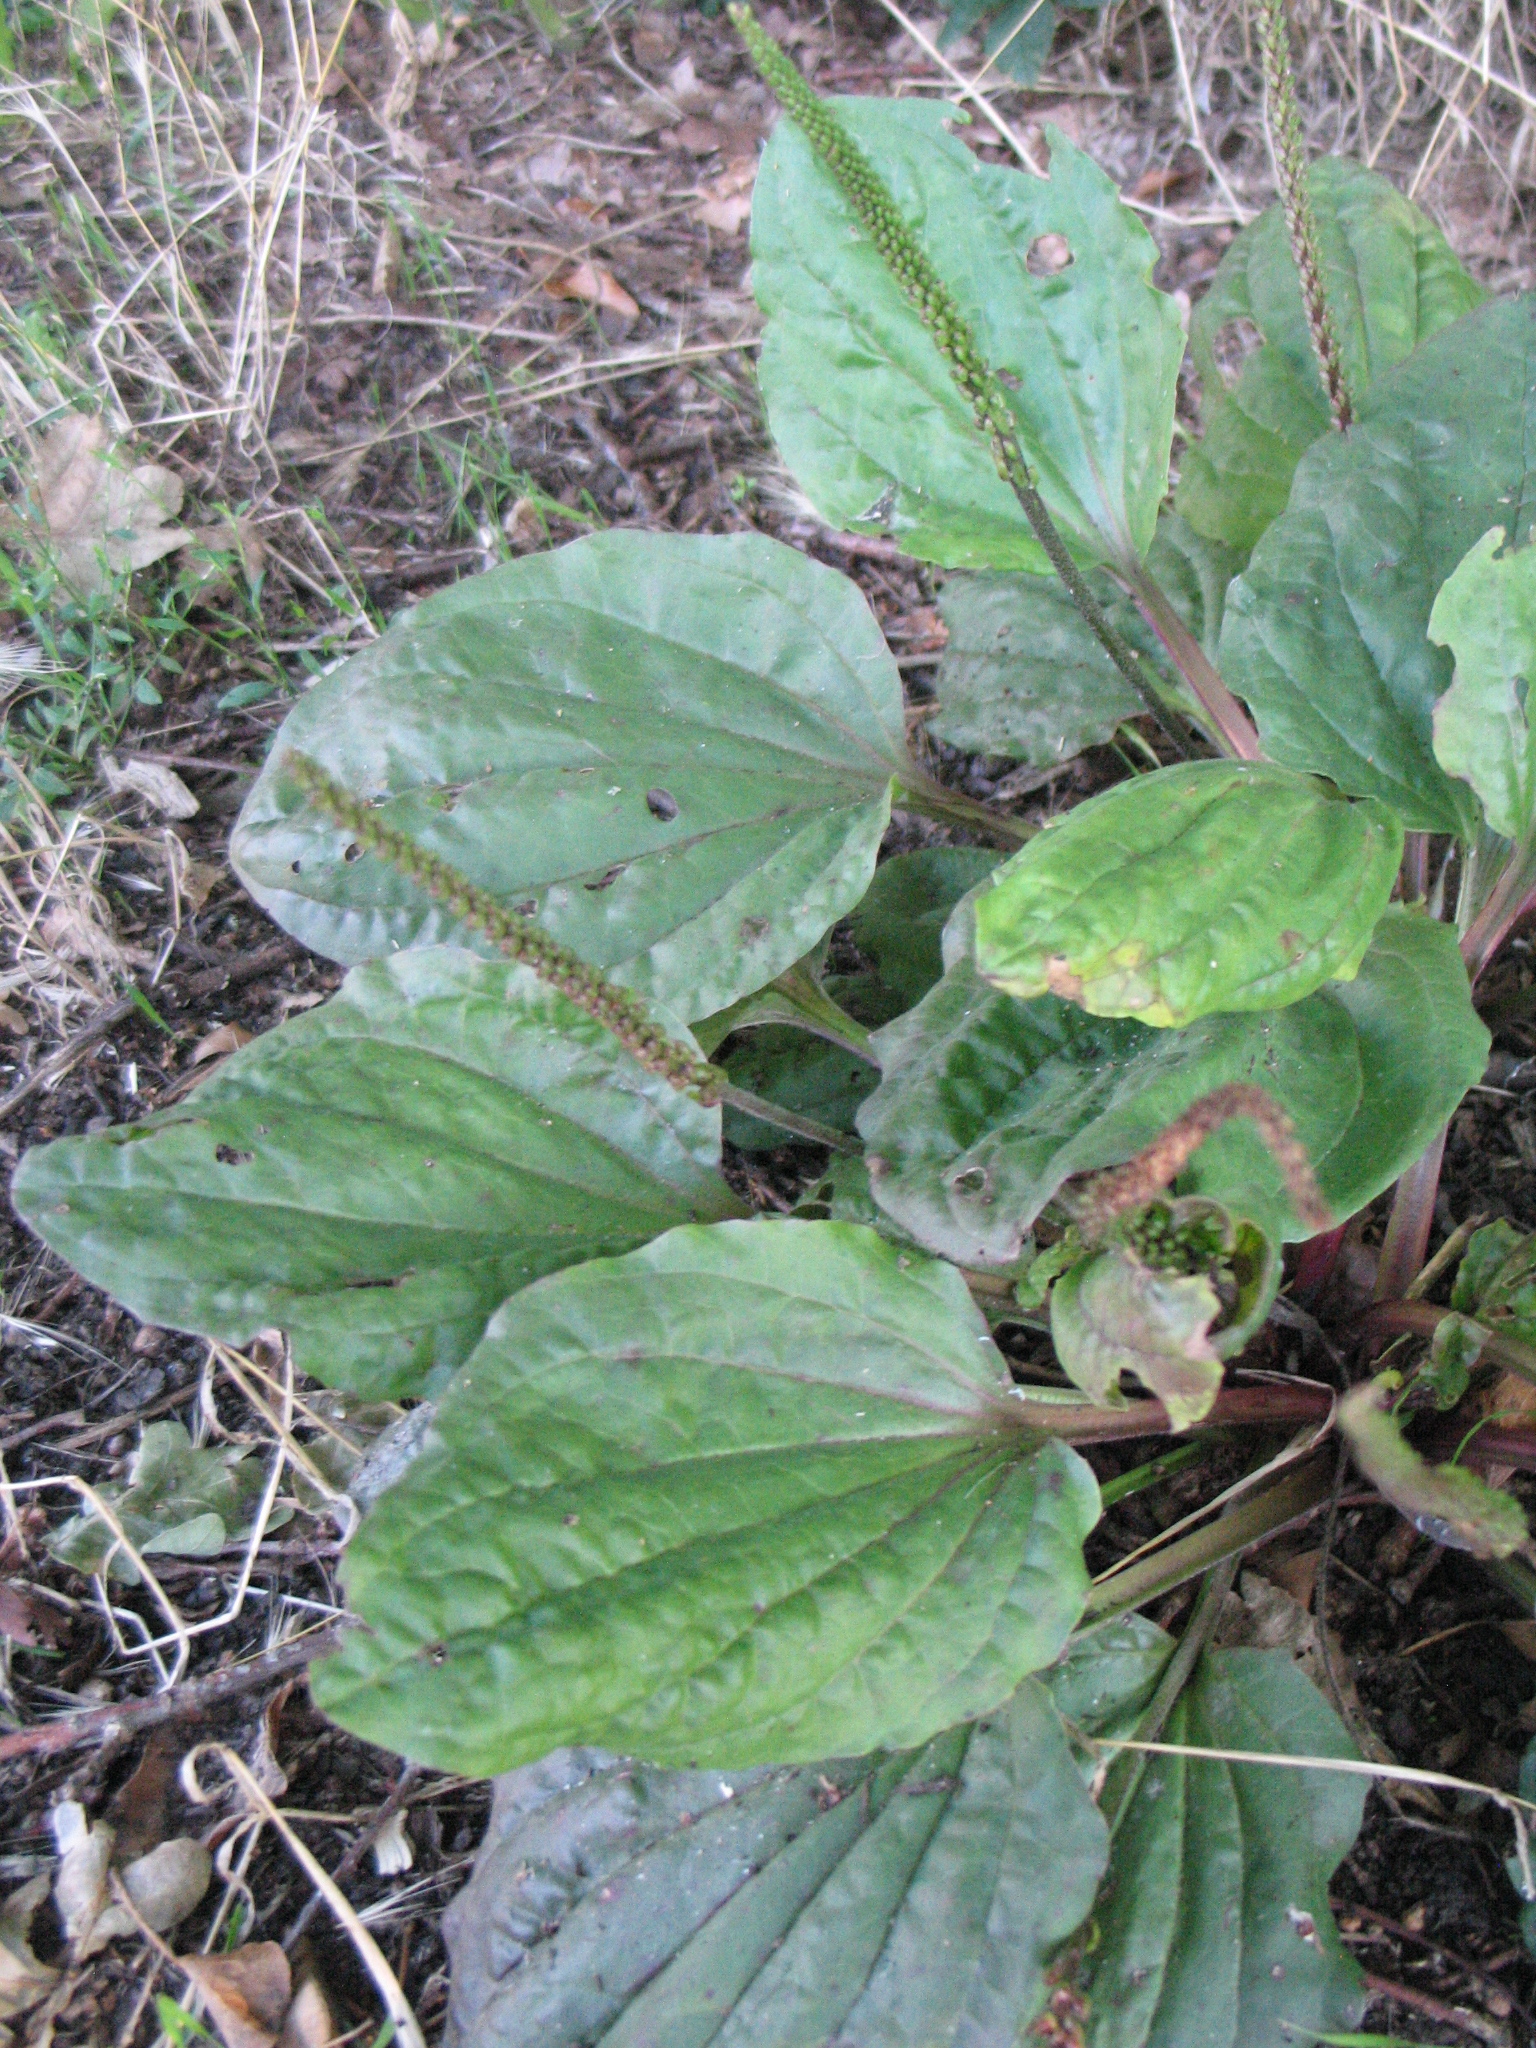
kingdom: Plantae
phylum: Tracheophyta
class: Magnoliopsida
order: Lamiales
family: Plantaginaceae
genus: Plantago
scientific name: Plantago major
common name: Common plantain
